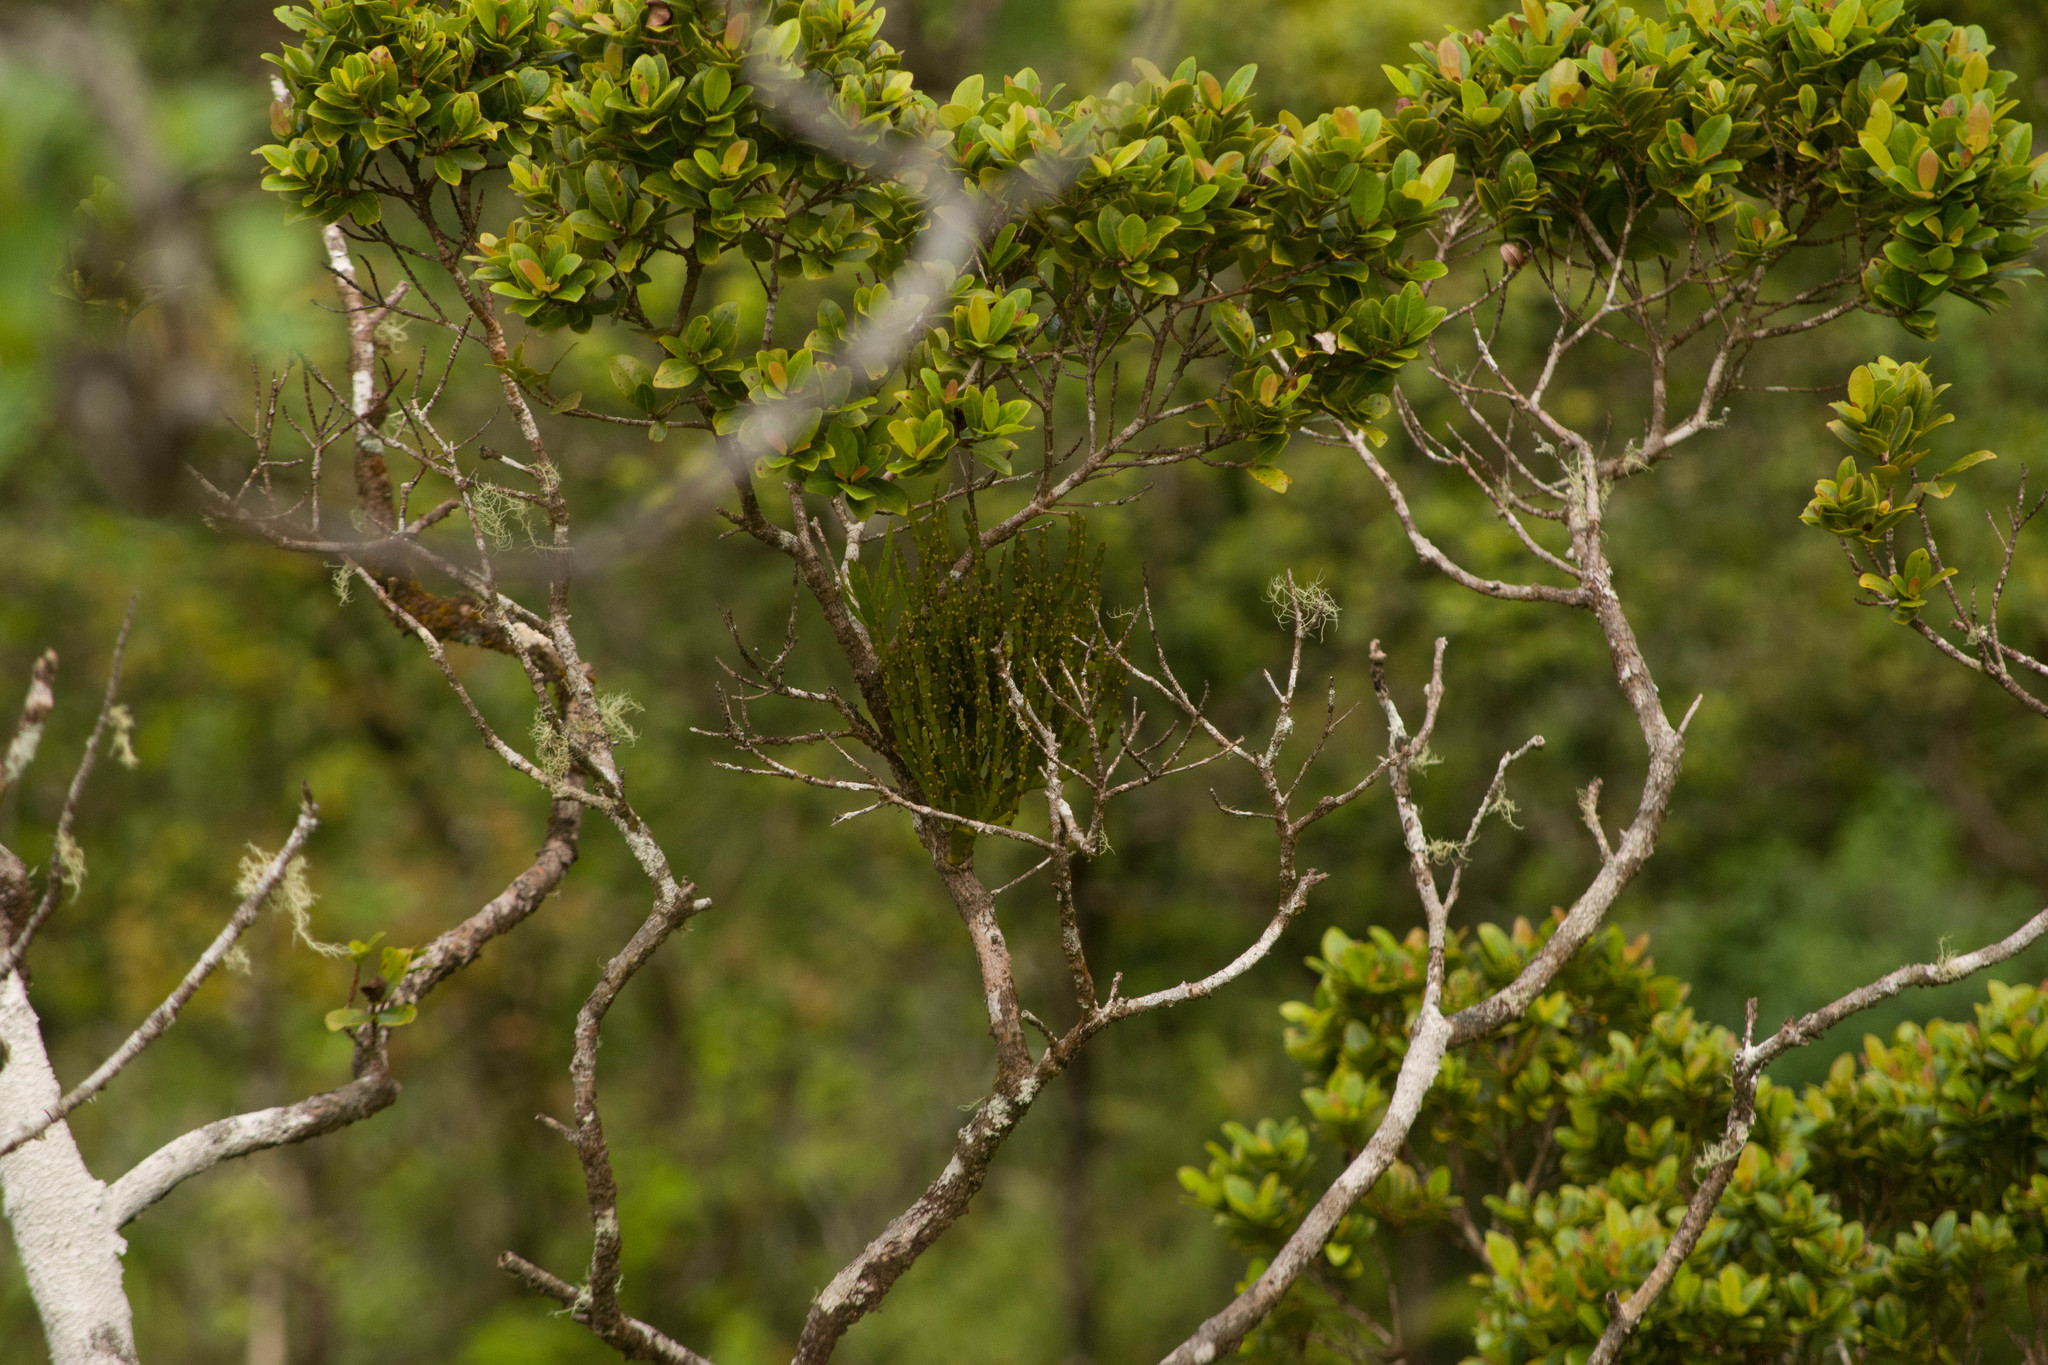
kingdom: Plantae
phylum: Tracheophyta
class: Magnoliopsida
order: Santalales
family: Viscaceae
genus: Korthalsella
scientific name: Korthalsella complanata
